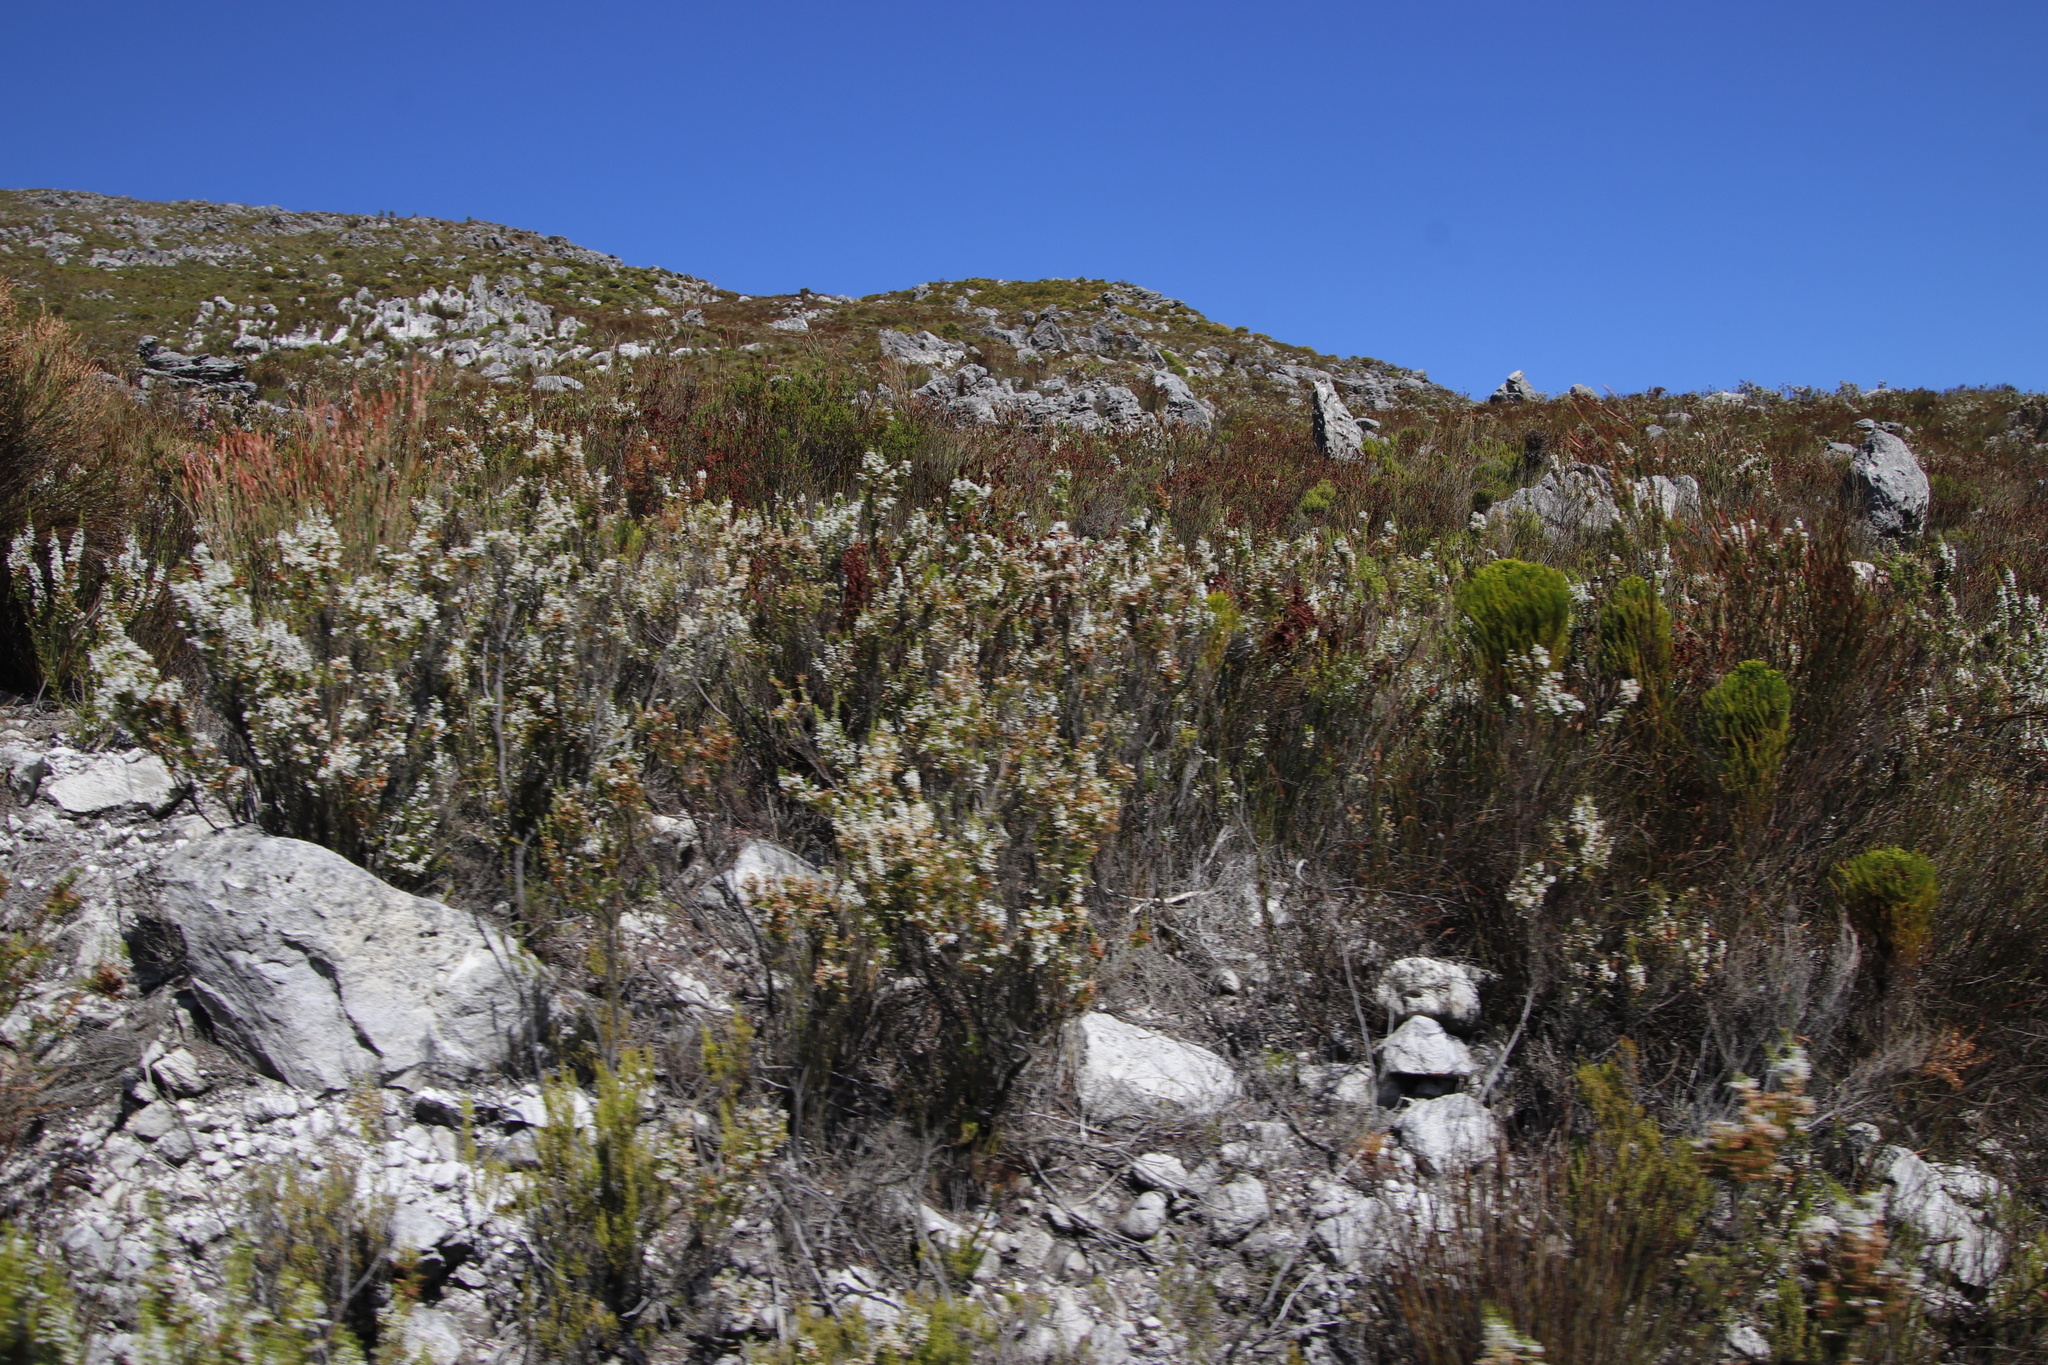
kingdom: Plantae
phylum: Tracheophyta
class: Magnoliopsida
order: Ericales
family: Ericaceae
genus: Erica
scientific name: Erica sitiens
